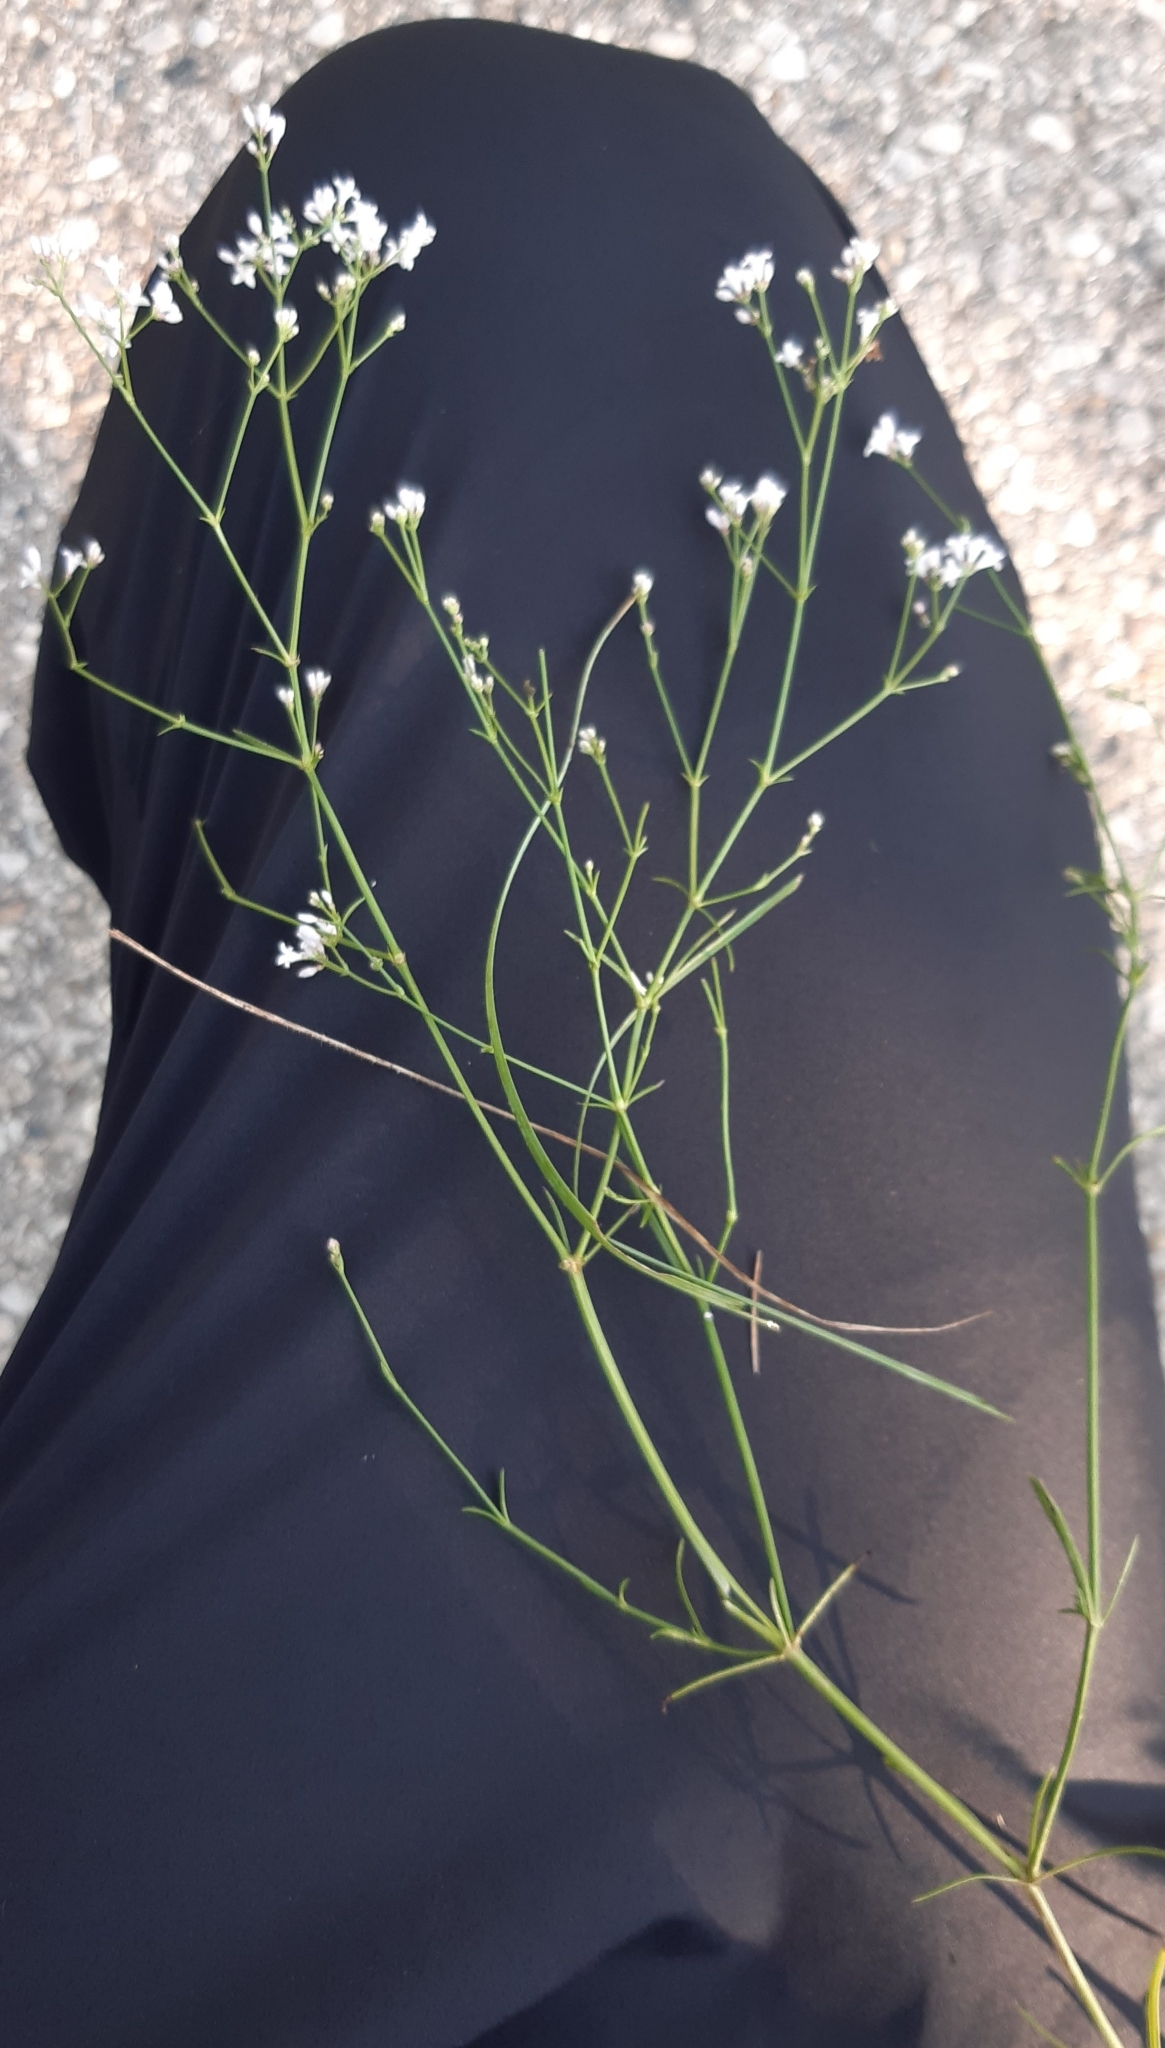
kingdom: Plantae
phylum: Tracheophyta
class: Magnoliopsida
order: Gentianales
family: Rubiaceae
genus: Cynanchica
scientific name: Cynanchica pyrenaica
